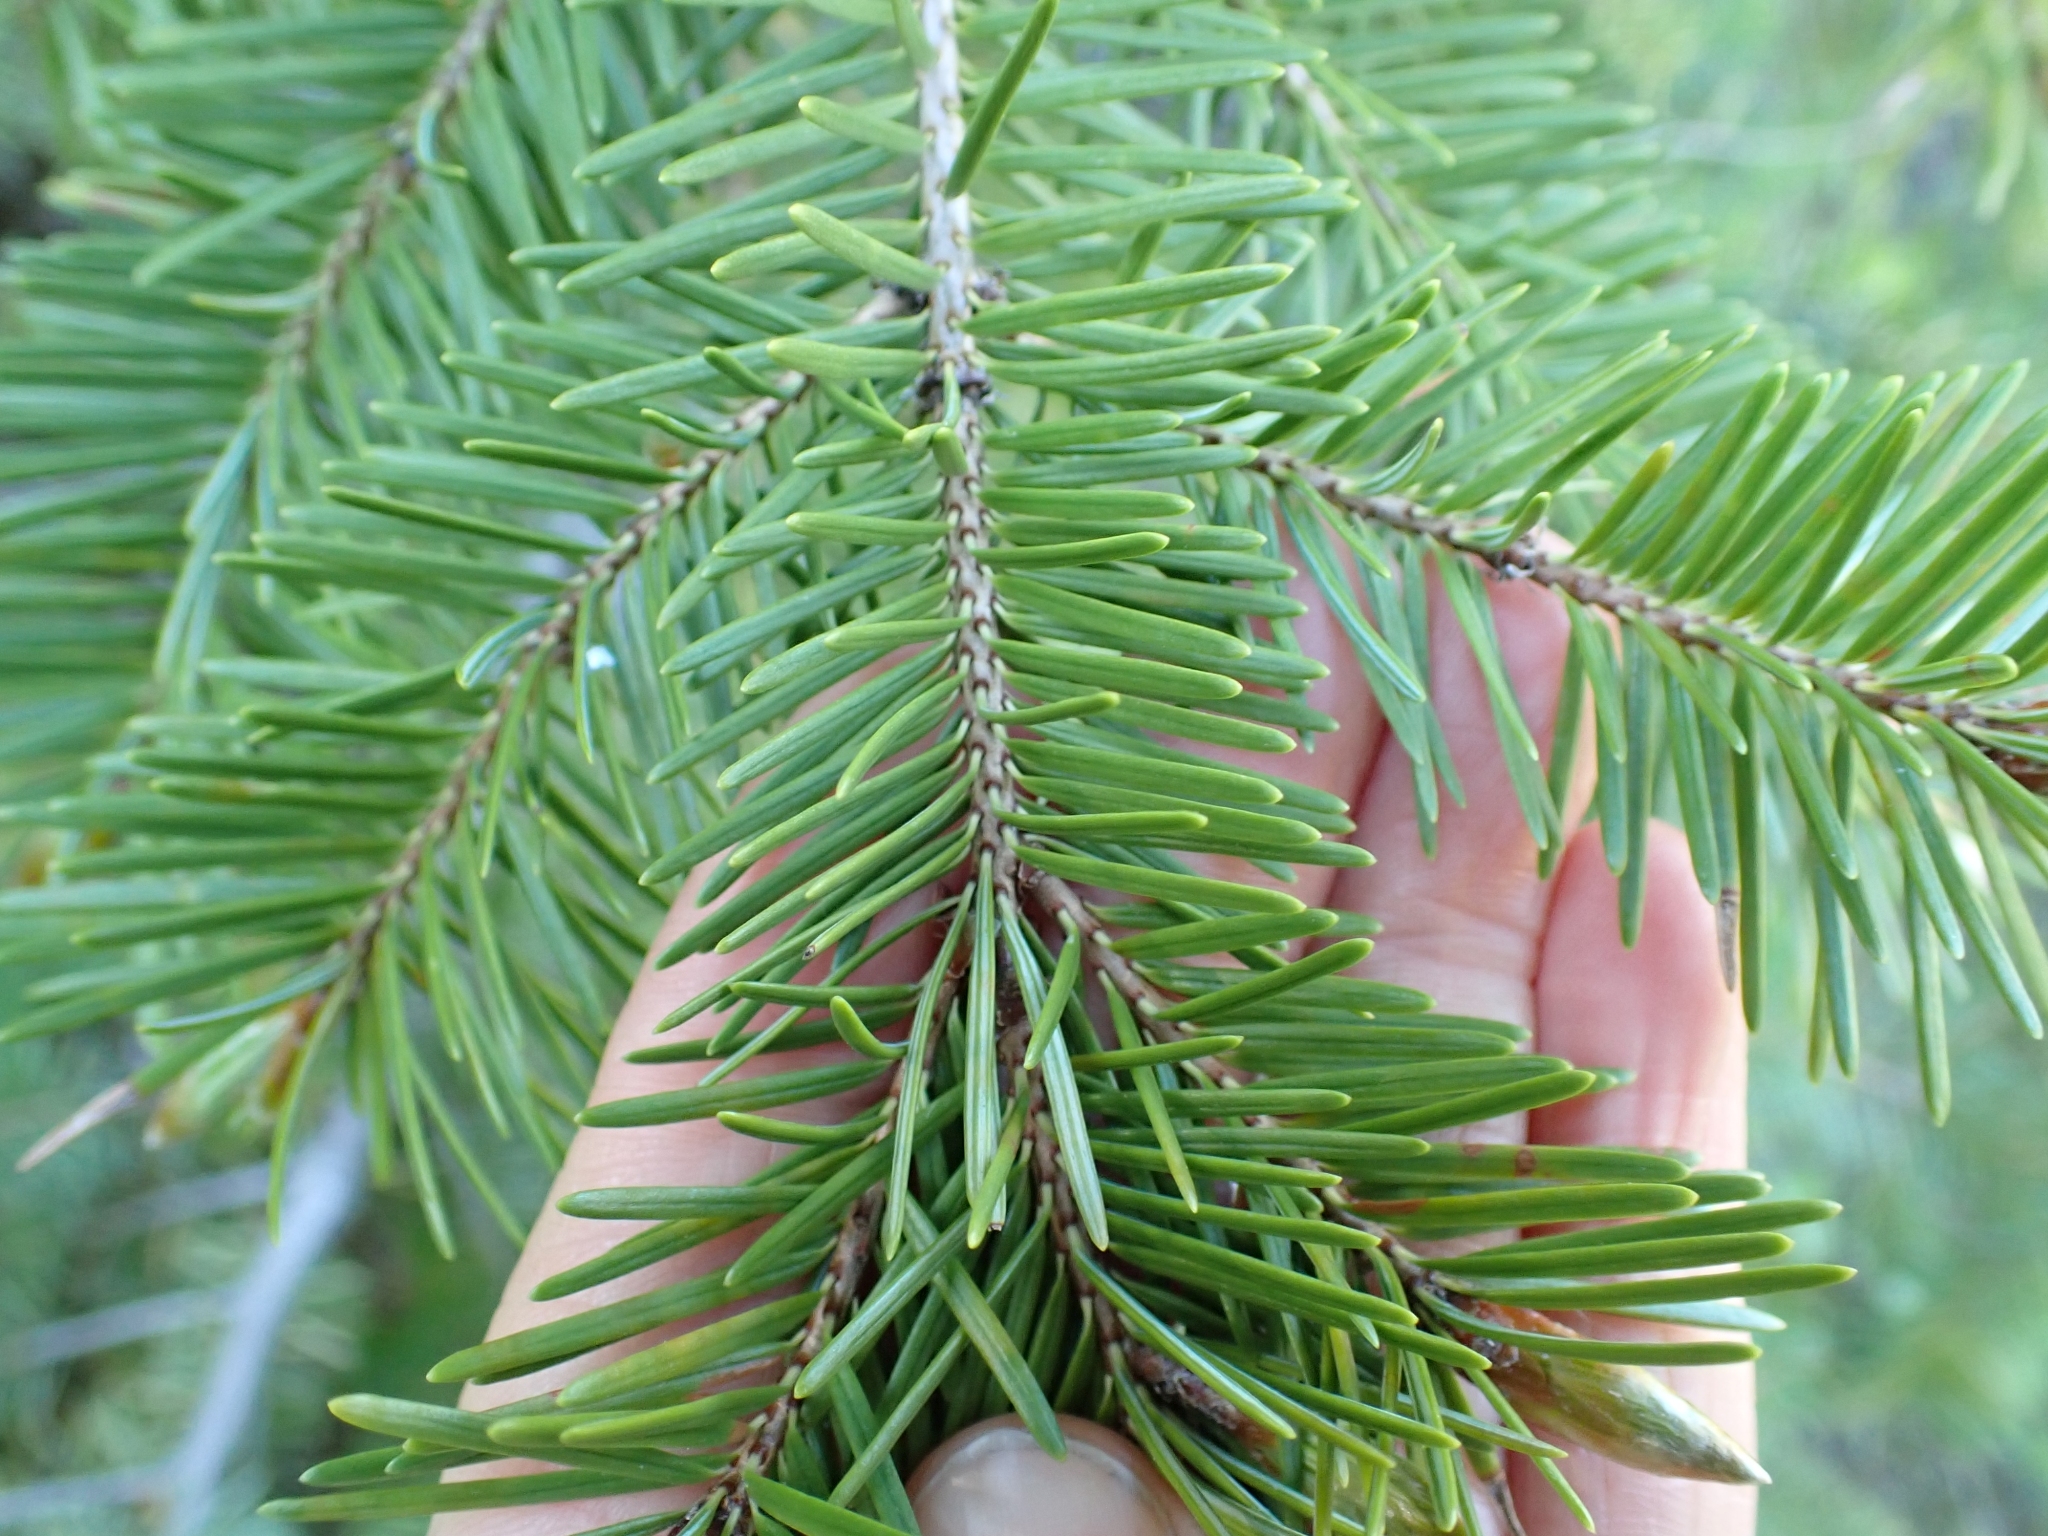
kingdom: Plantae
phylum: Tracheophyta
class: Pinopsida
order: Pinales
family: Pinaceae
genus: Pseudotsuga
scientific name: Pseudotsuga menziesii
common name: Douglas fir
